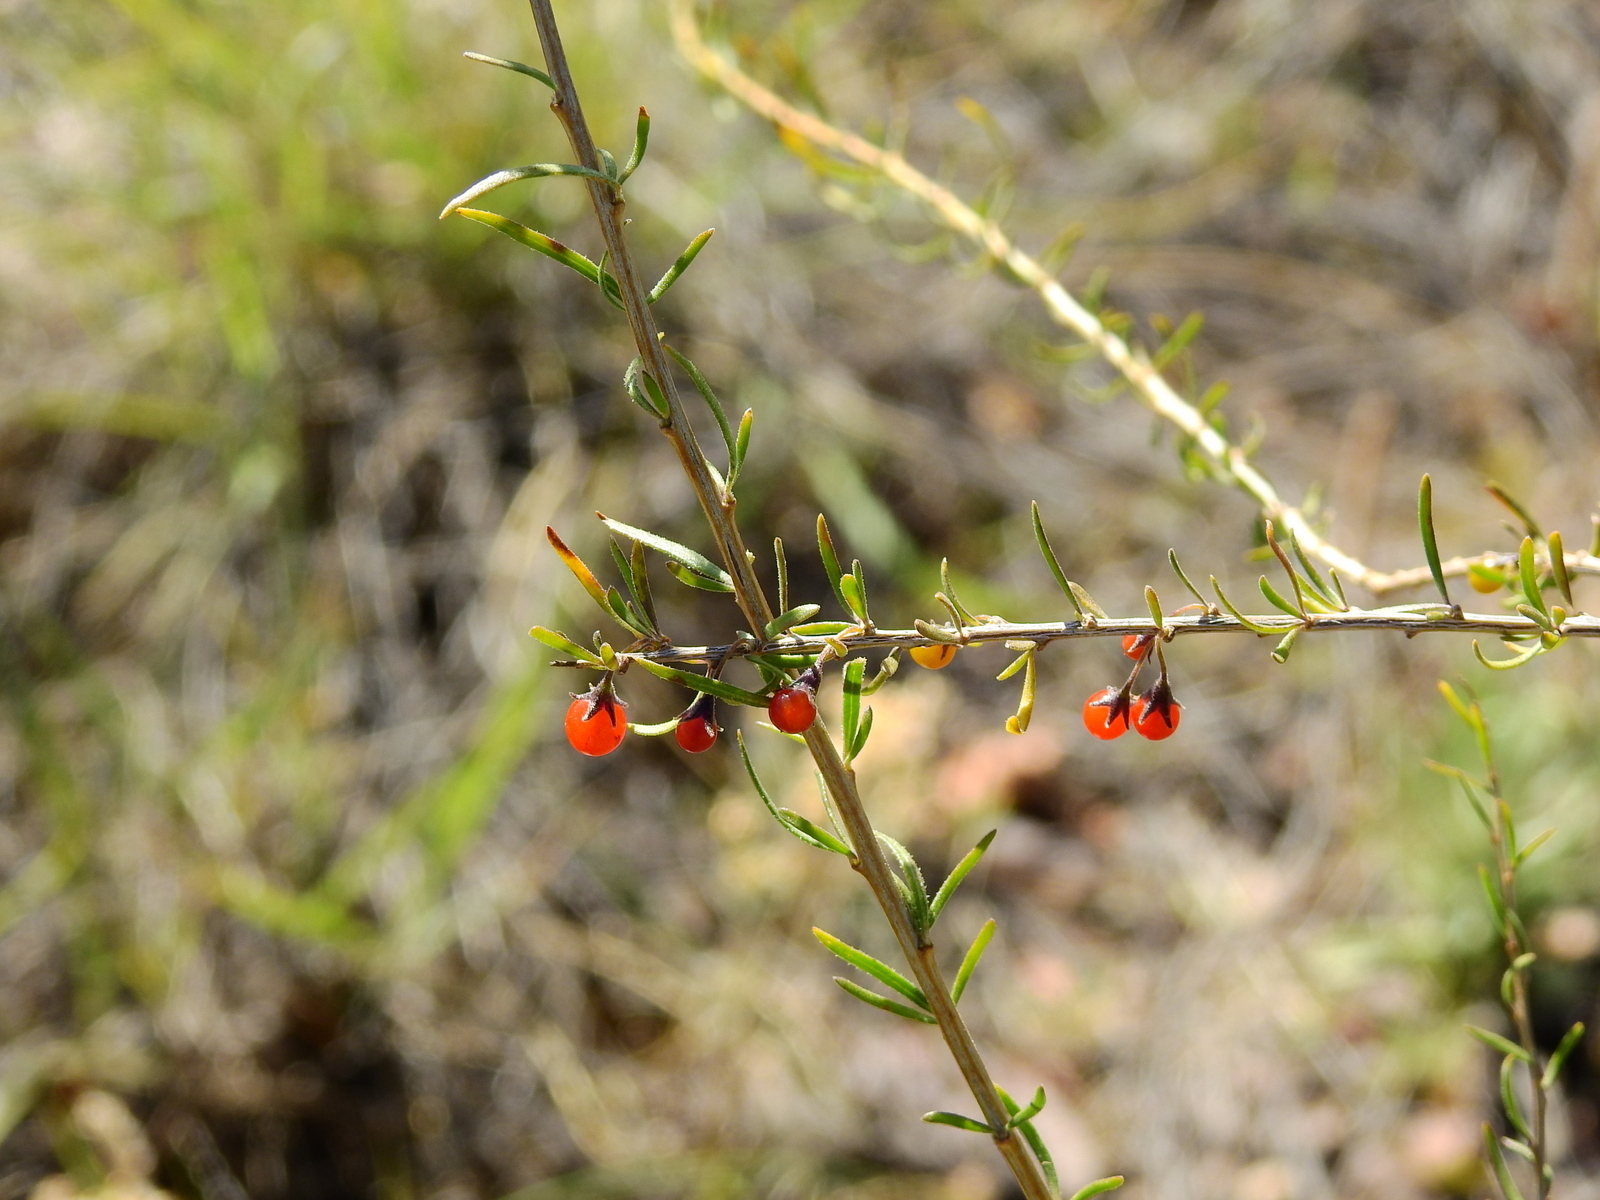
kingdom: Plantae
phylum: Tracheophyta
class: Magnoliopsida
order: Solanales
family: Solanaceae
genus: Lycium
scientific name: Lycium chilense
